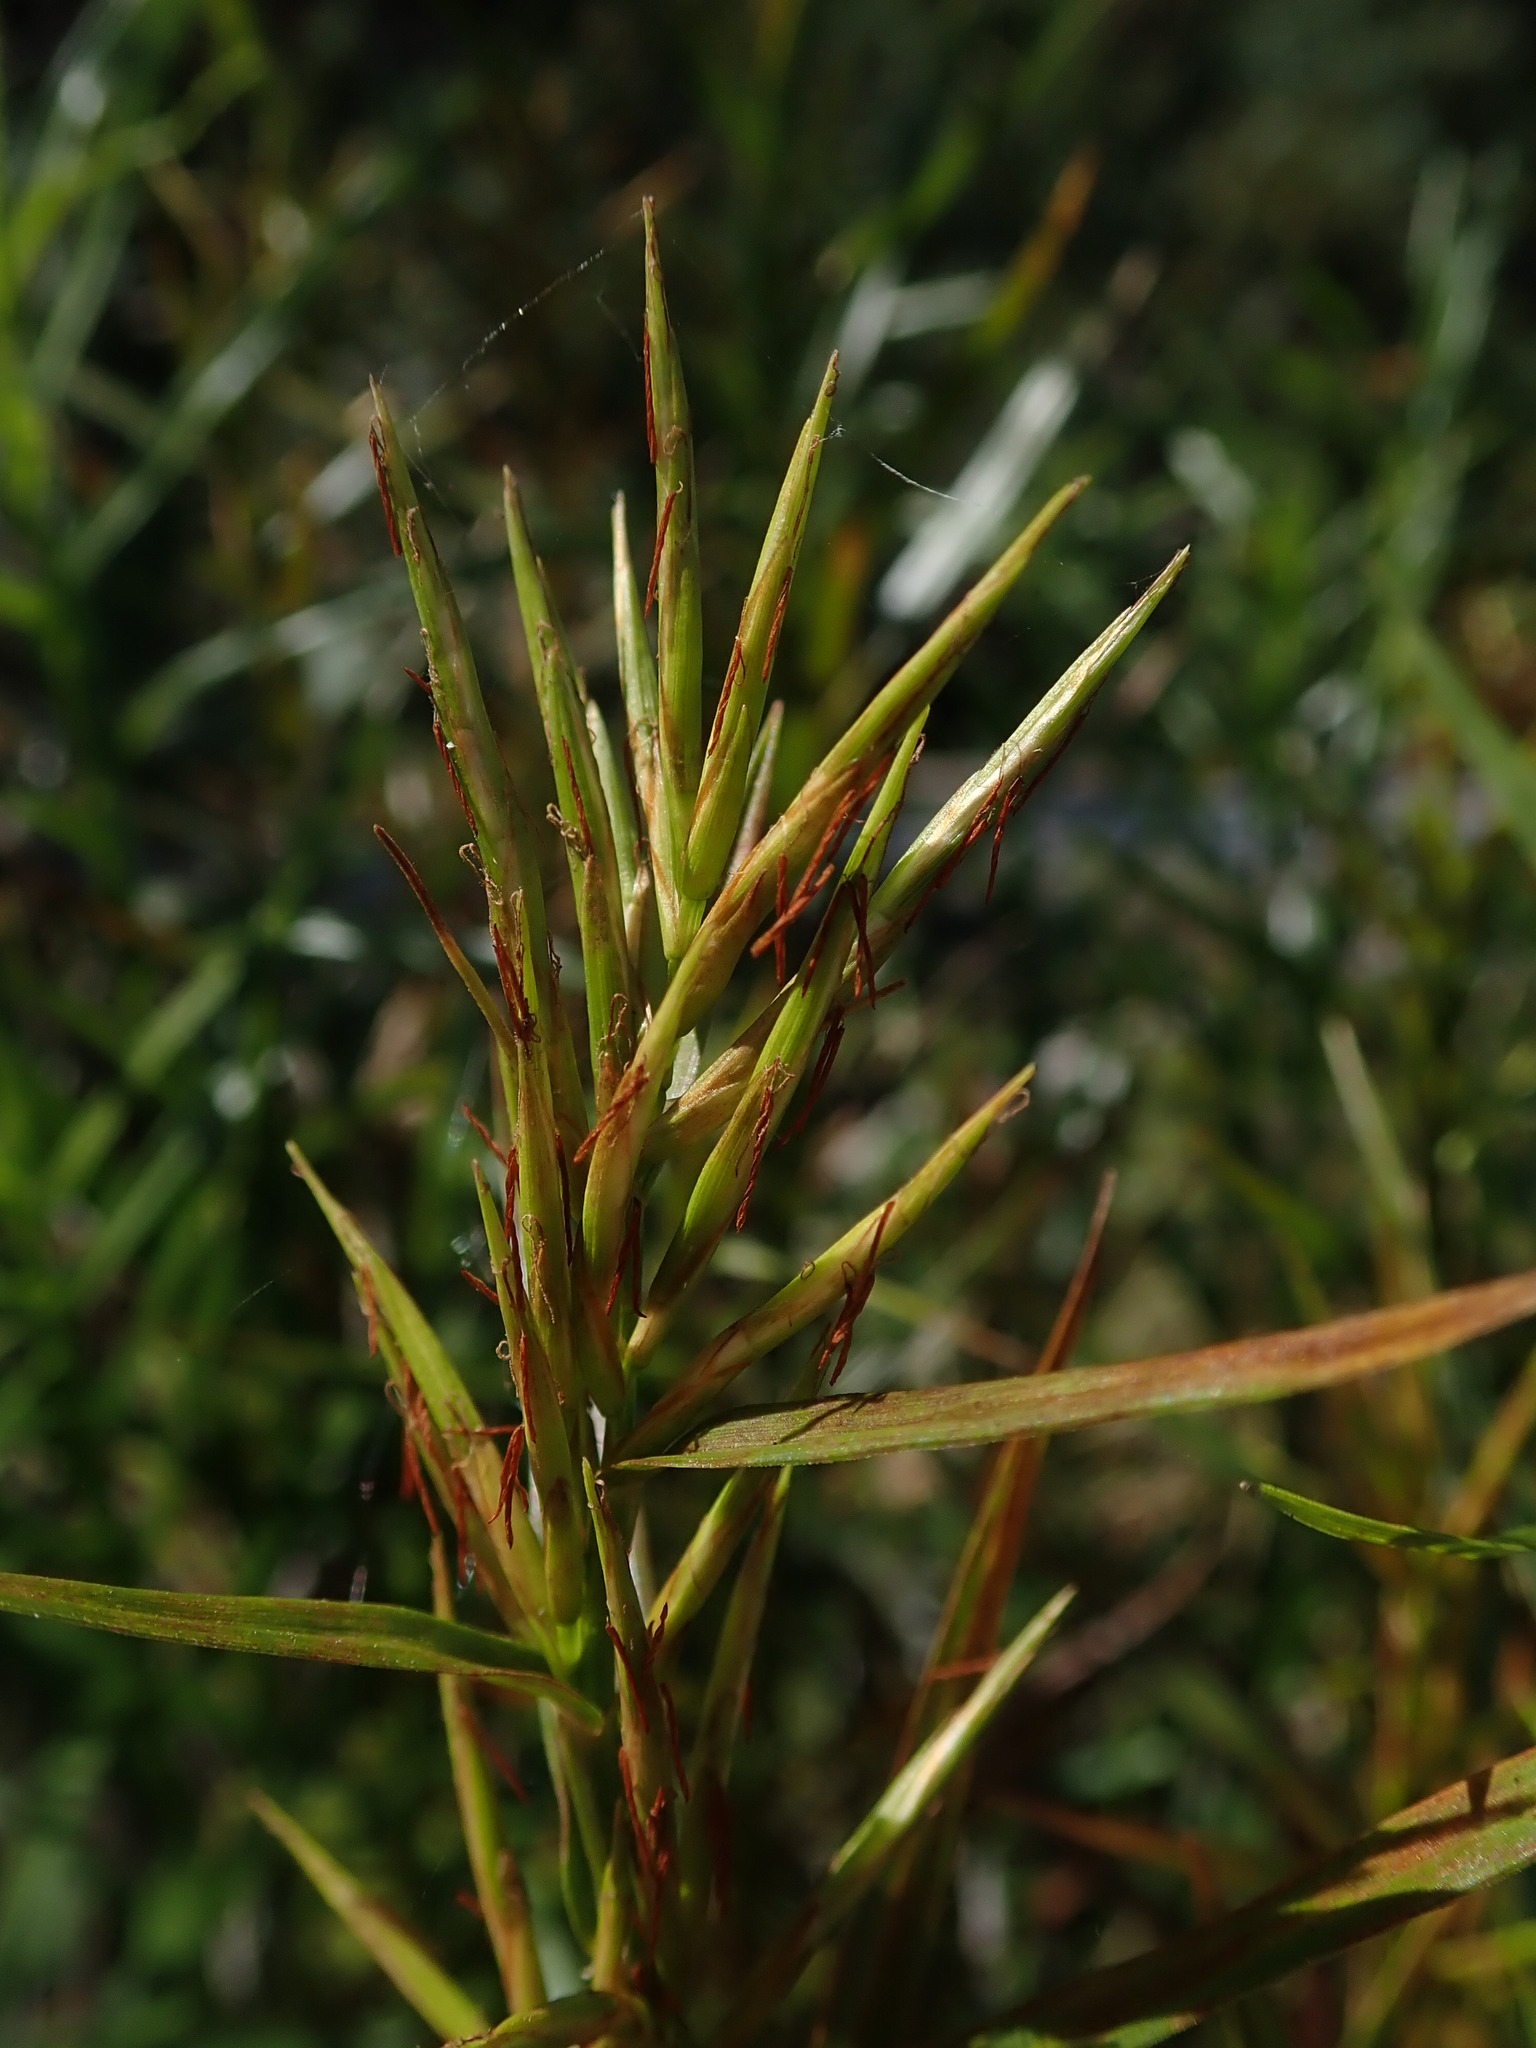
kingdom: Plantae
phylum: Tracheophyta
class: Liliopsida
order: Poales
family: Cyperaceae
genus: Dulichium
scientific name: Dulichium arundinaceum
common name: Three-way sedge
